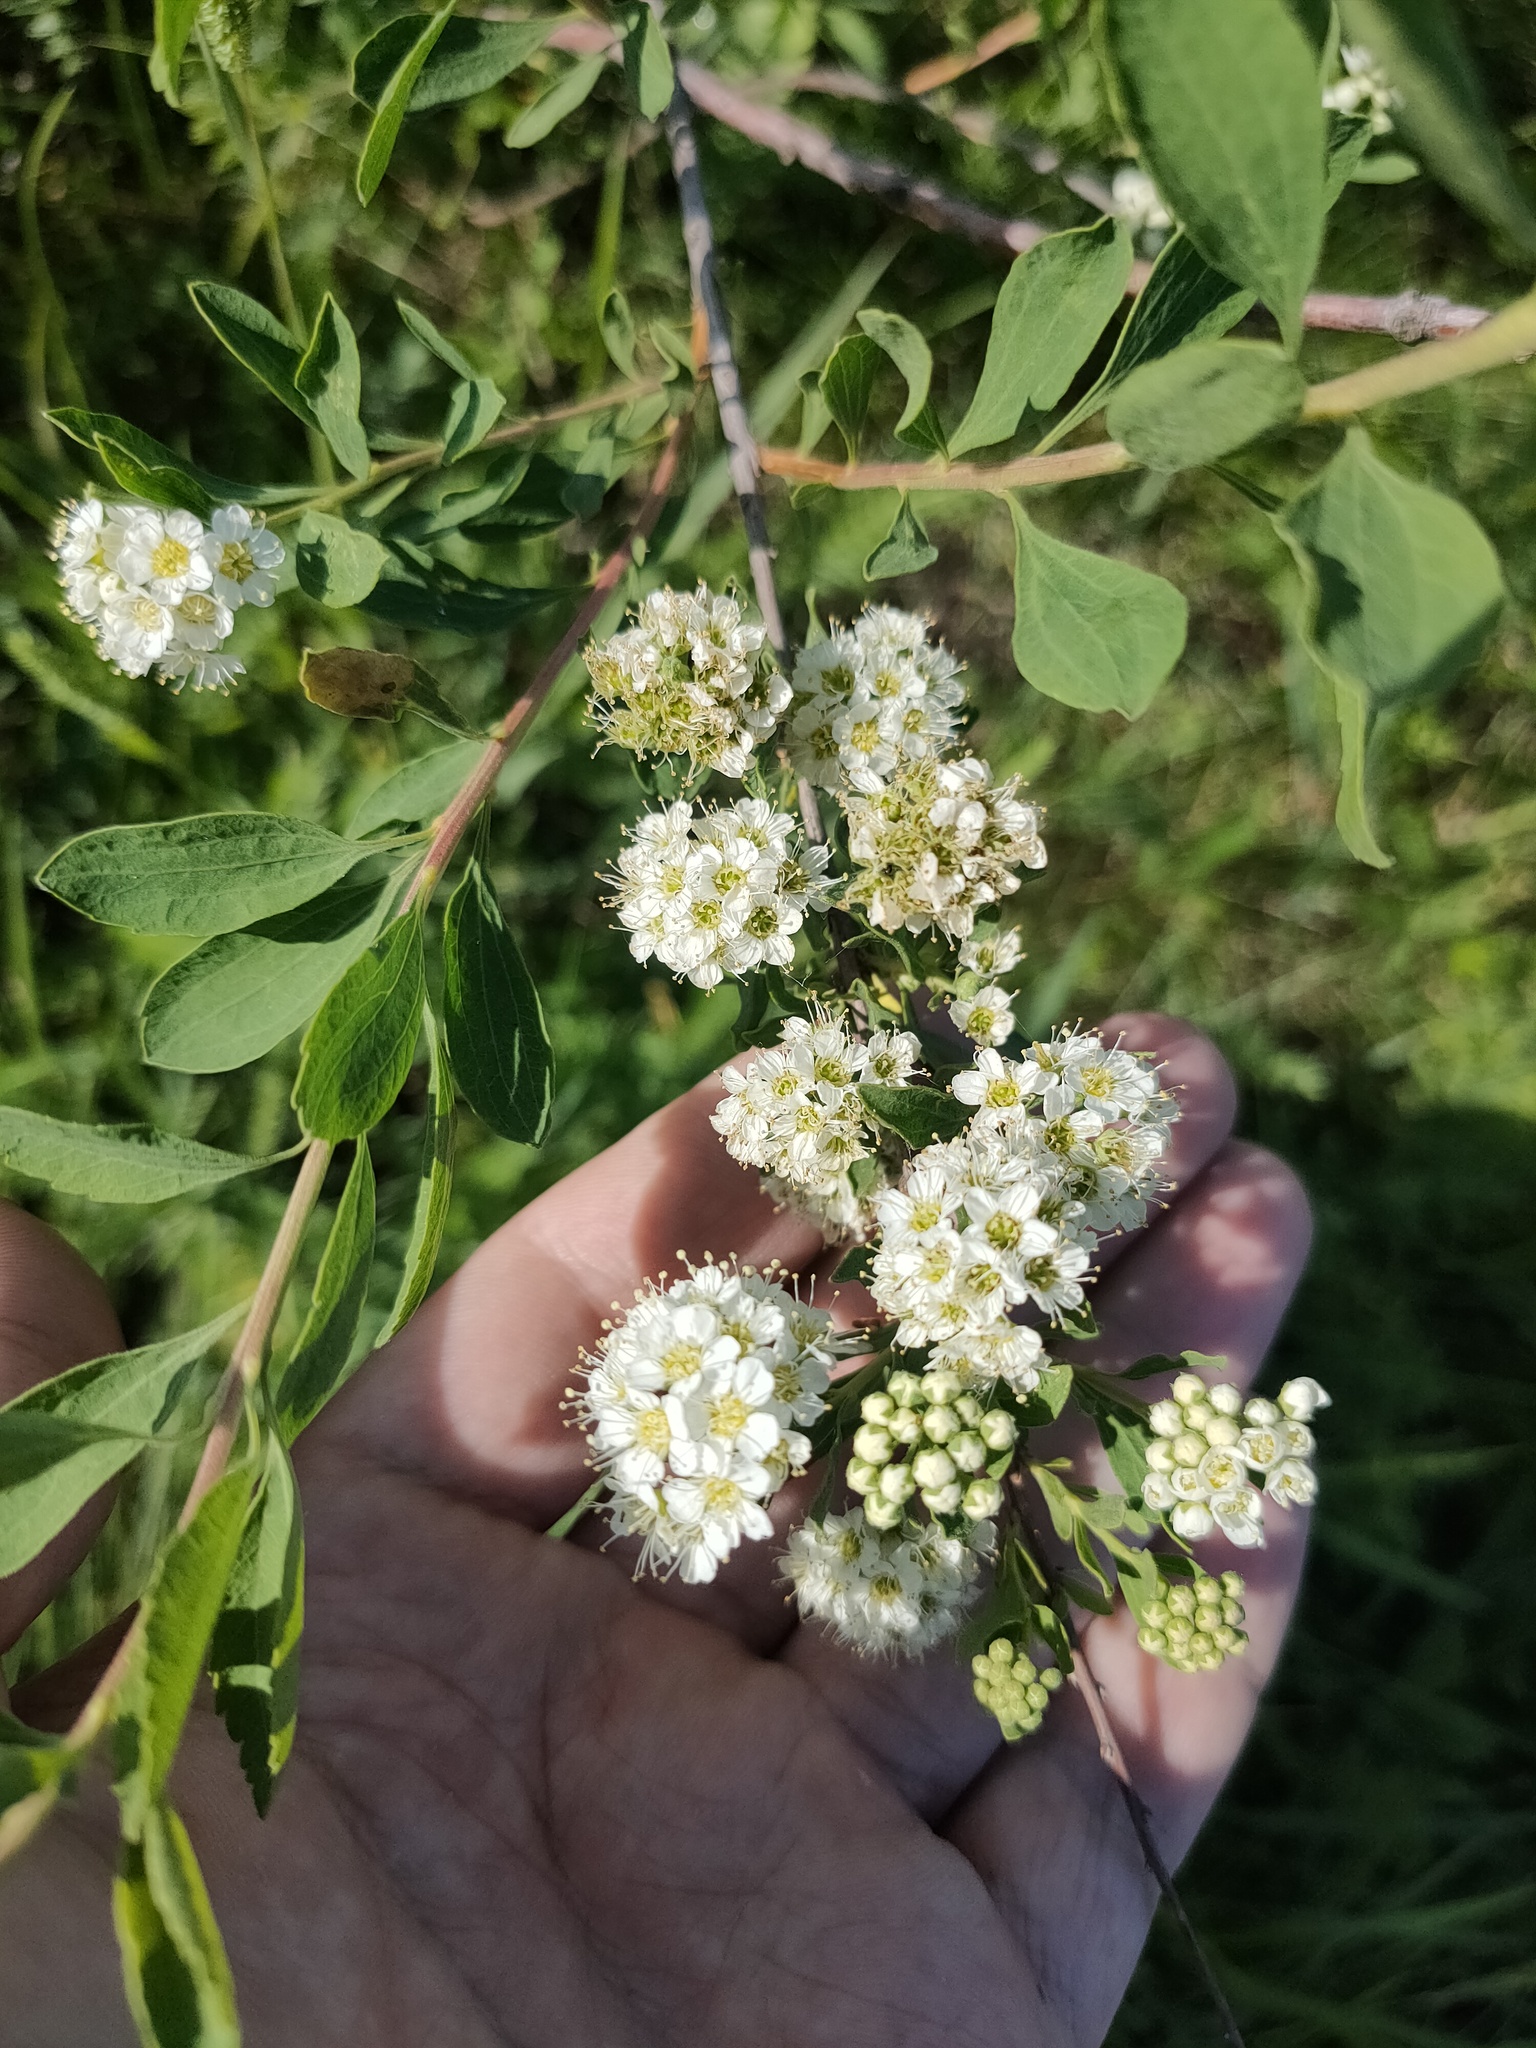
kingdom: Plantae
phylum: Tracheophyta
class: Magnoliopsida
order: Rosales
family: Rosaceae
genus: Spiraea
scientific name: Spiraea crenata
